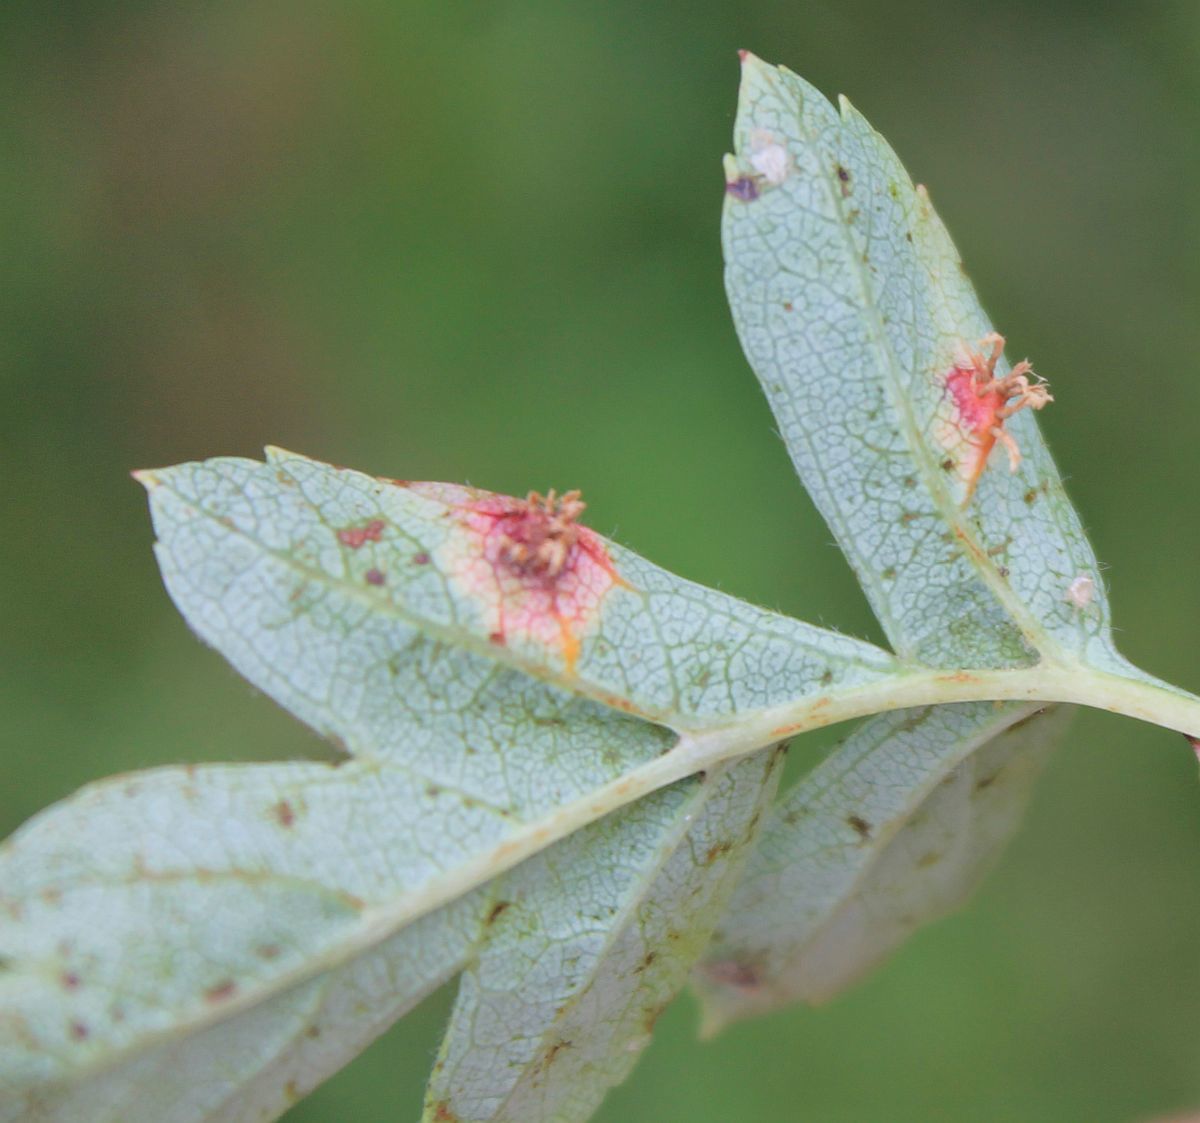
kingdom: Fungi
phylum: Basidiomycota
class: Pucciniomycetes
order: Pucciniales
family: Gymnosporangiaceae
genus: Gymnosporangium
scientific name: Gymnosporangium clavariiforme
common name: Tongues of fire
